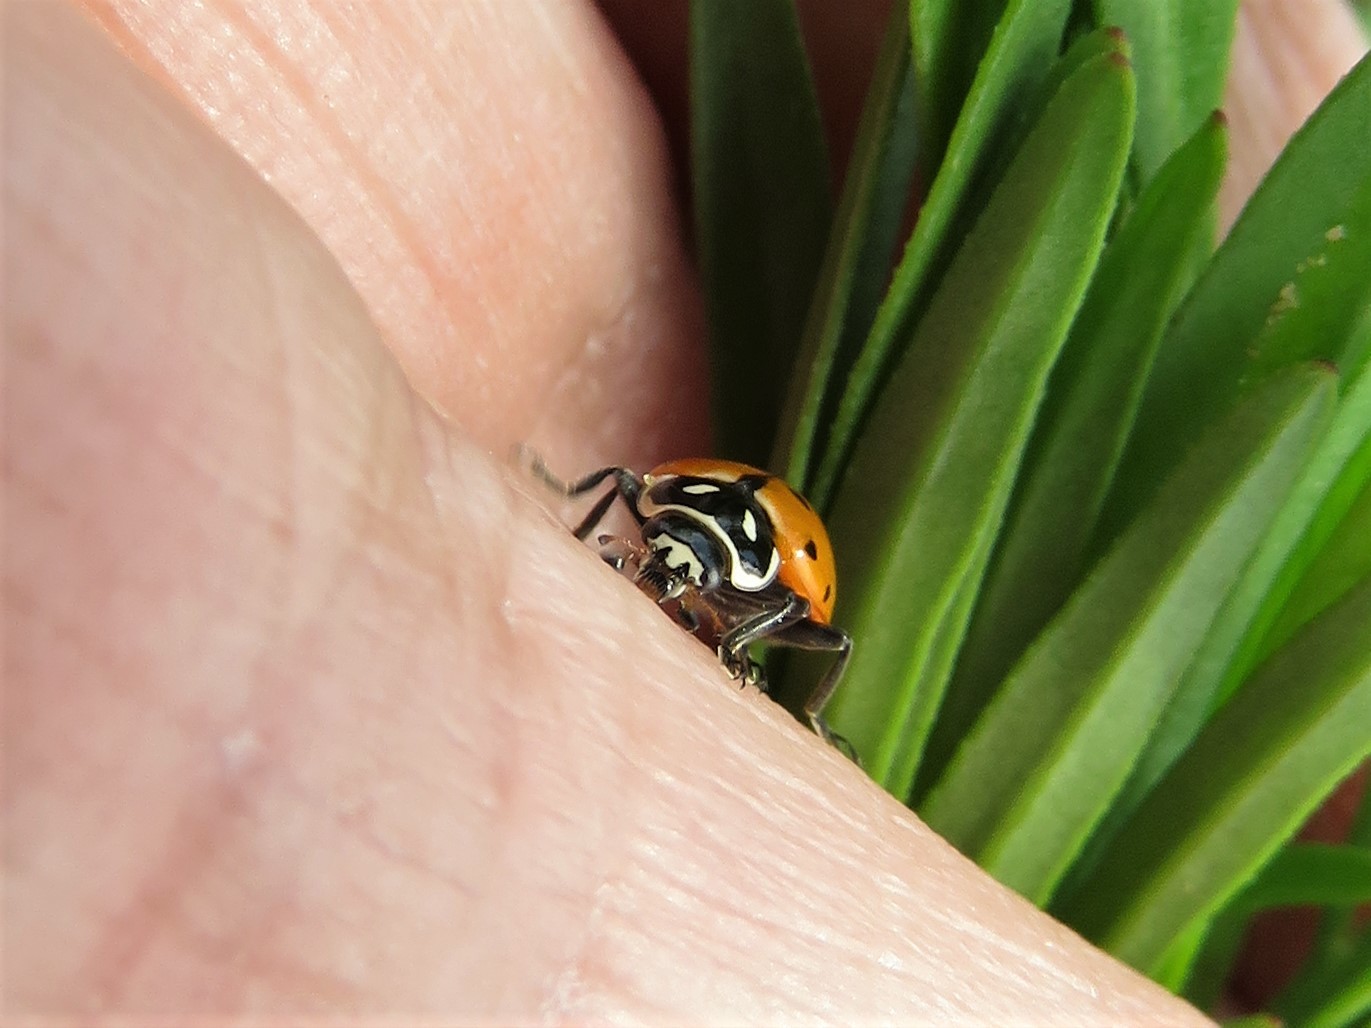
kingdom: Animalia
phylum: Arthropoda
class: Insecta
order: Coleoptera
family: Coccinellidae
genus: Hippodamia
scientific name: Hippodamia convergens
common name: Convergent lady beetle
